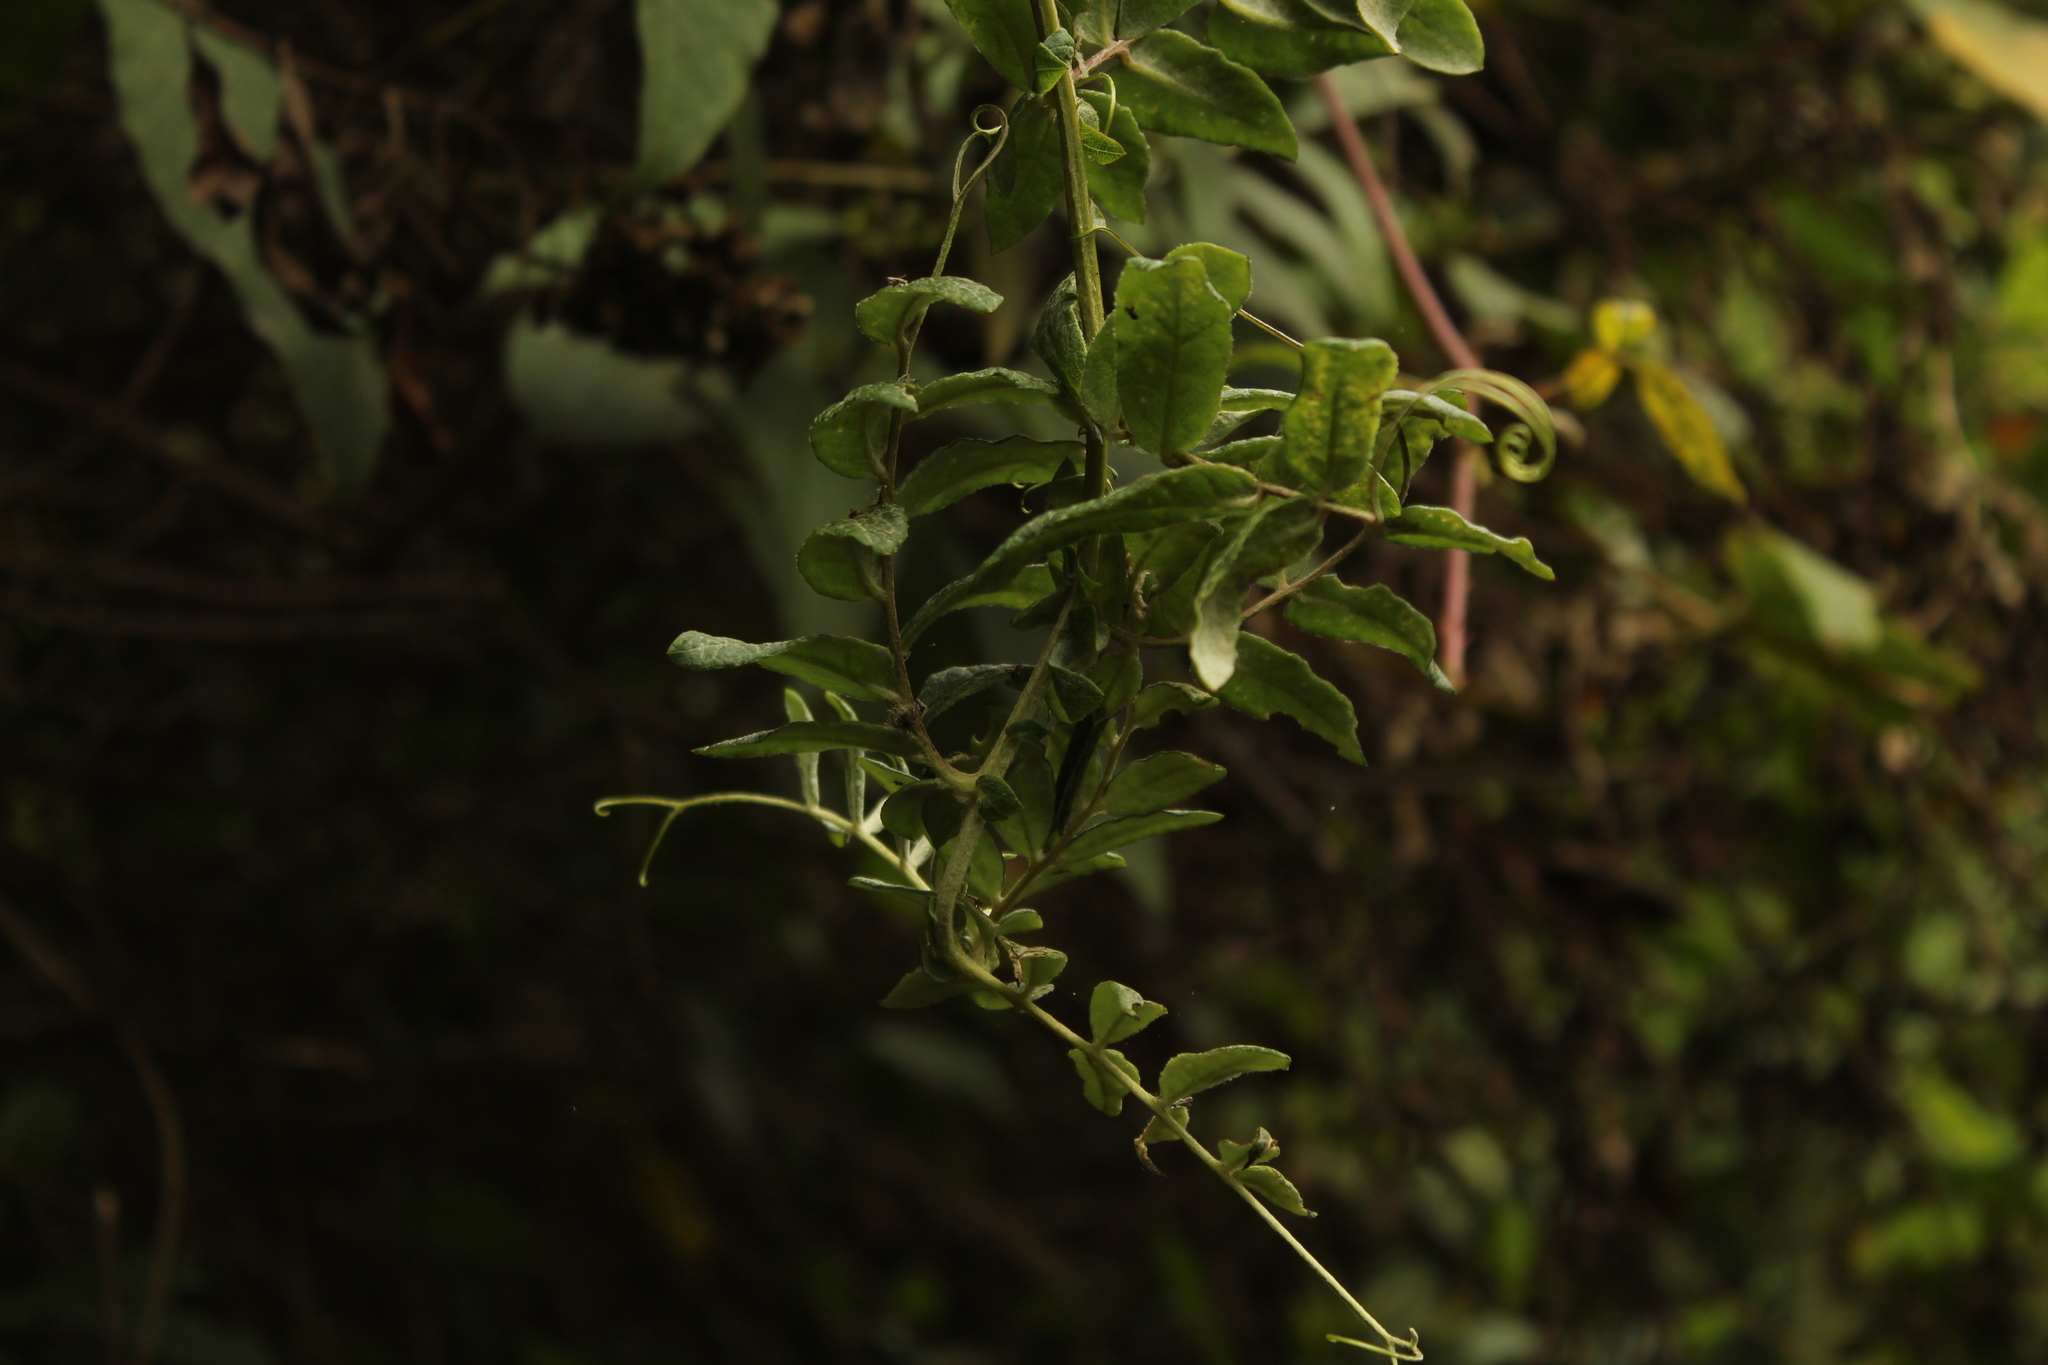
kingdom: Plantae
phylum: Tracheophyta
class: Magnoliopsida
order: Asterales
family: Asteraceae
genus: Mutisia
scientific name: Mutisia clematis
